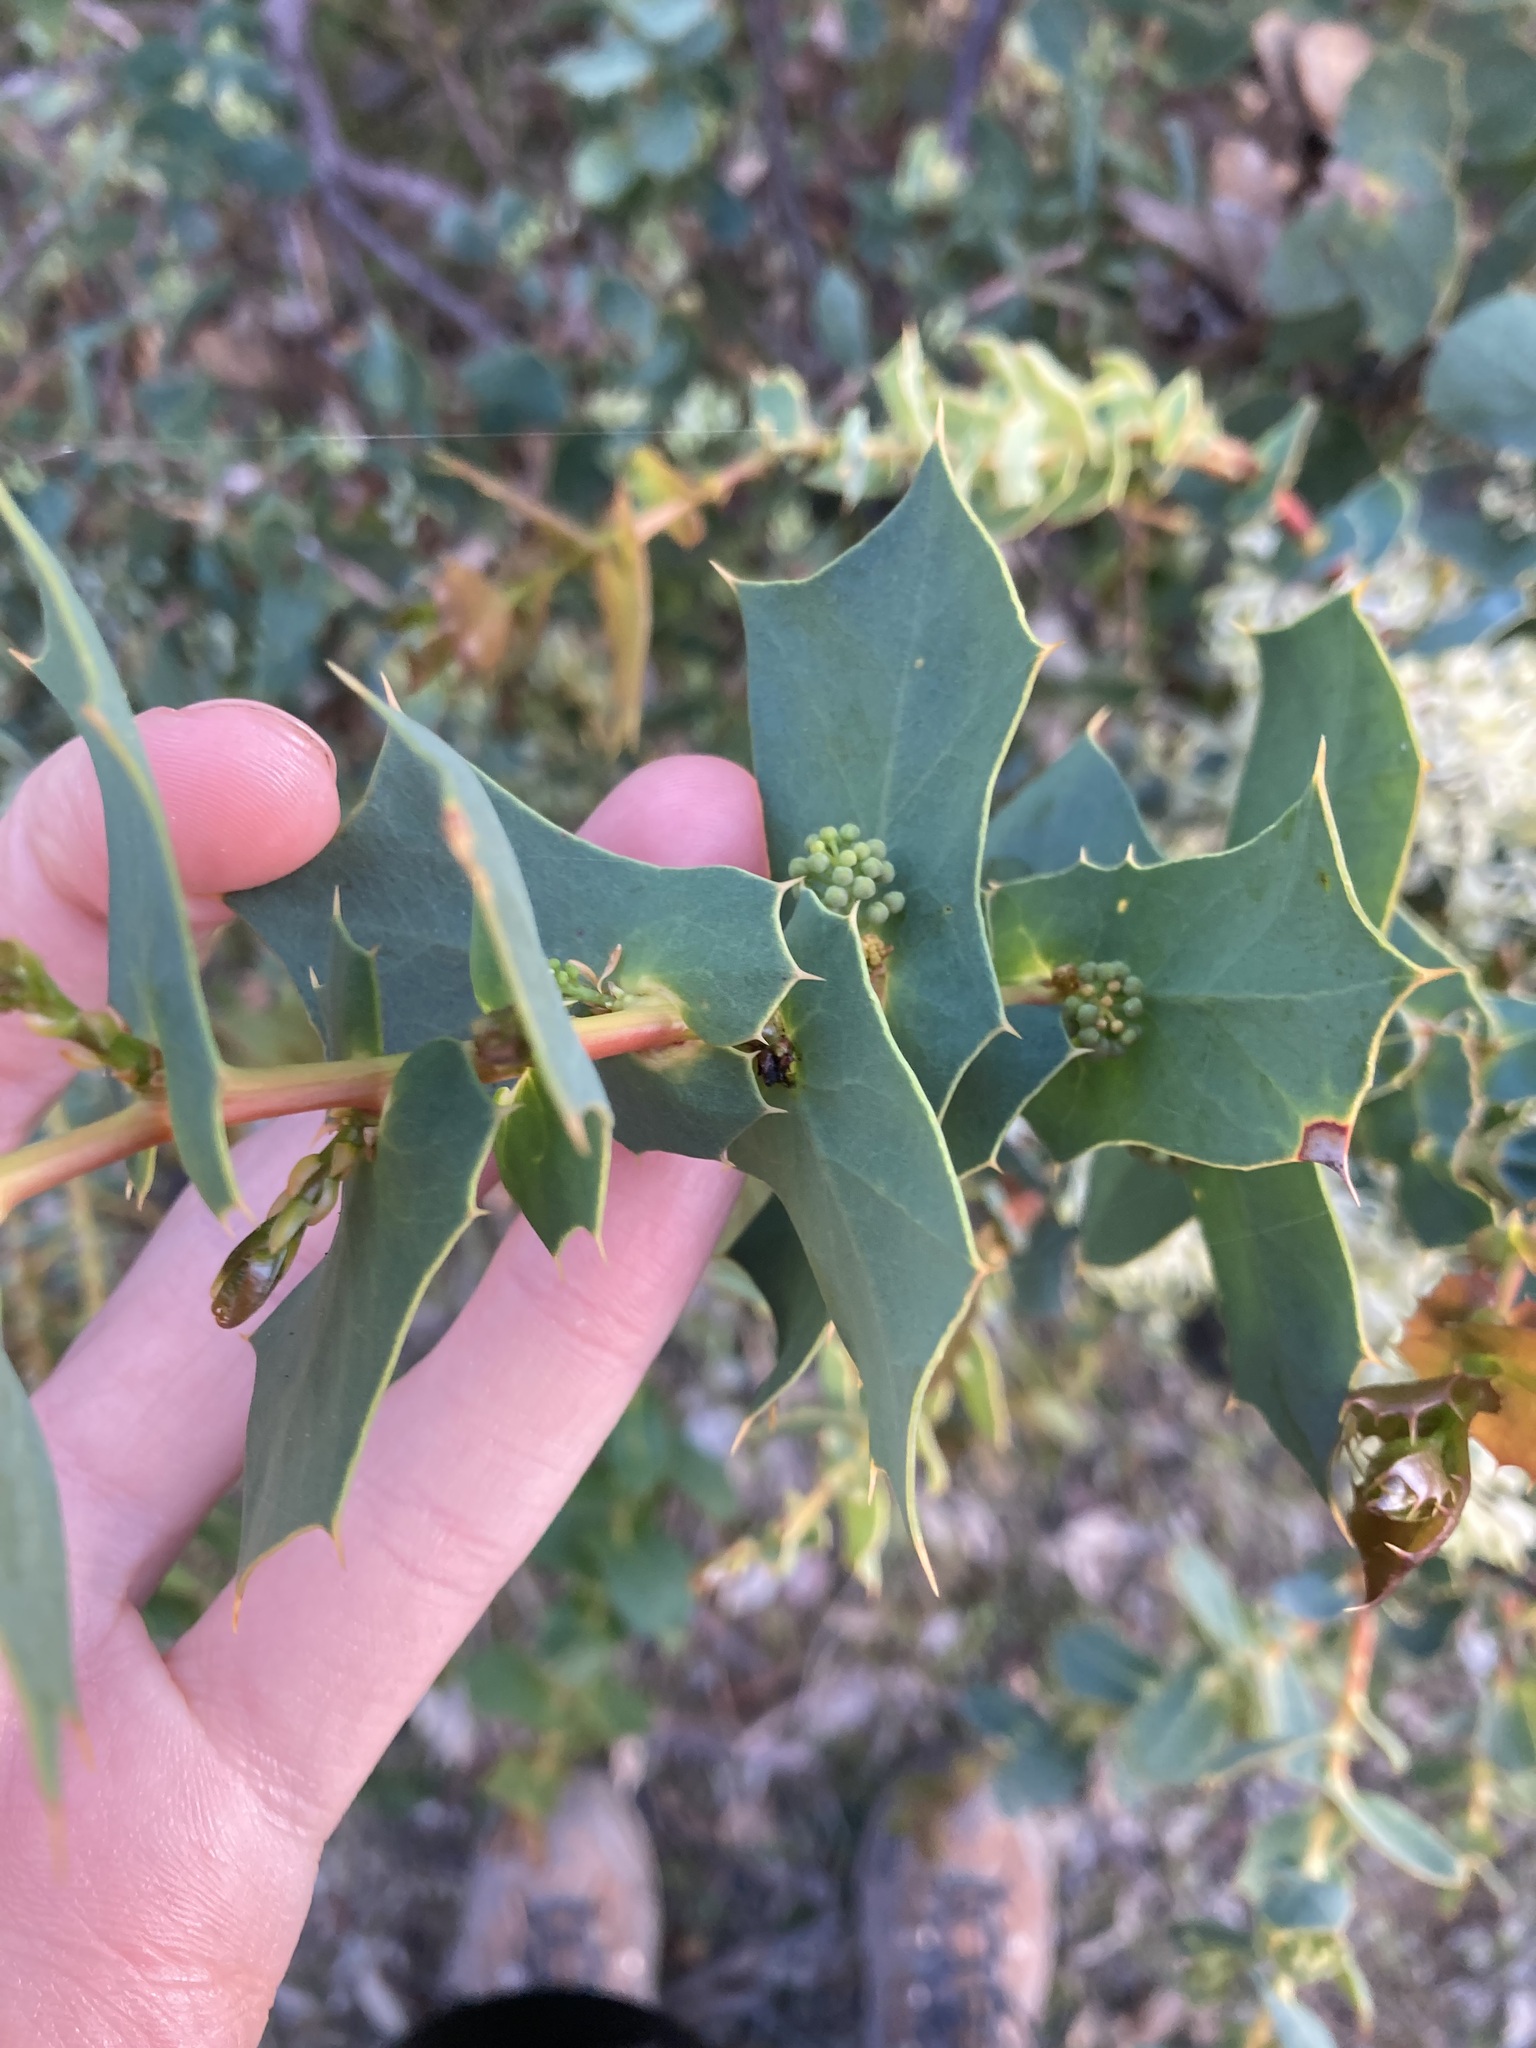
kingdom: Plantae
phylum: Tracheophyta
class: Magnoliopsida
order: Proteales
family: Proteaceae
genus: Hakea
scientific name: Hakea prostrata
